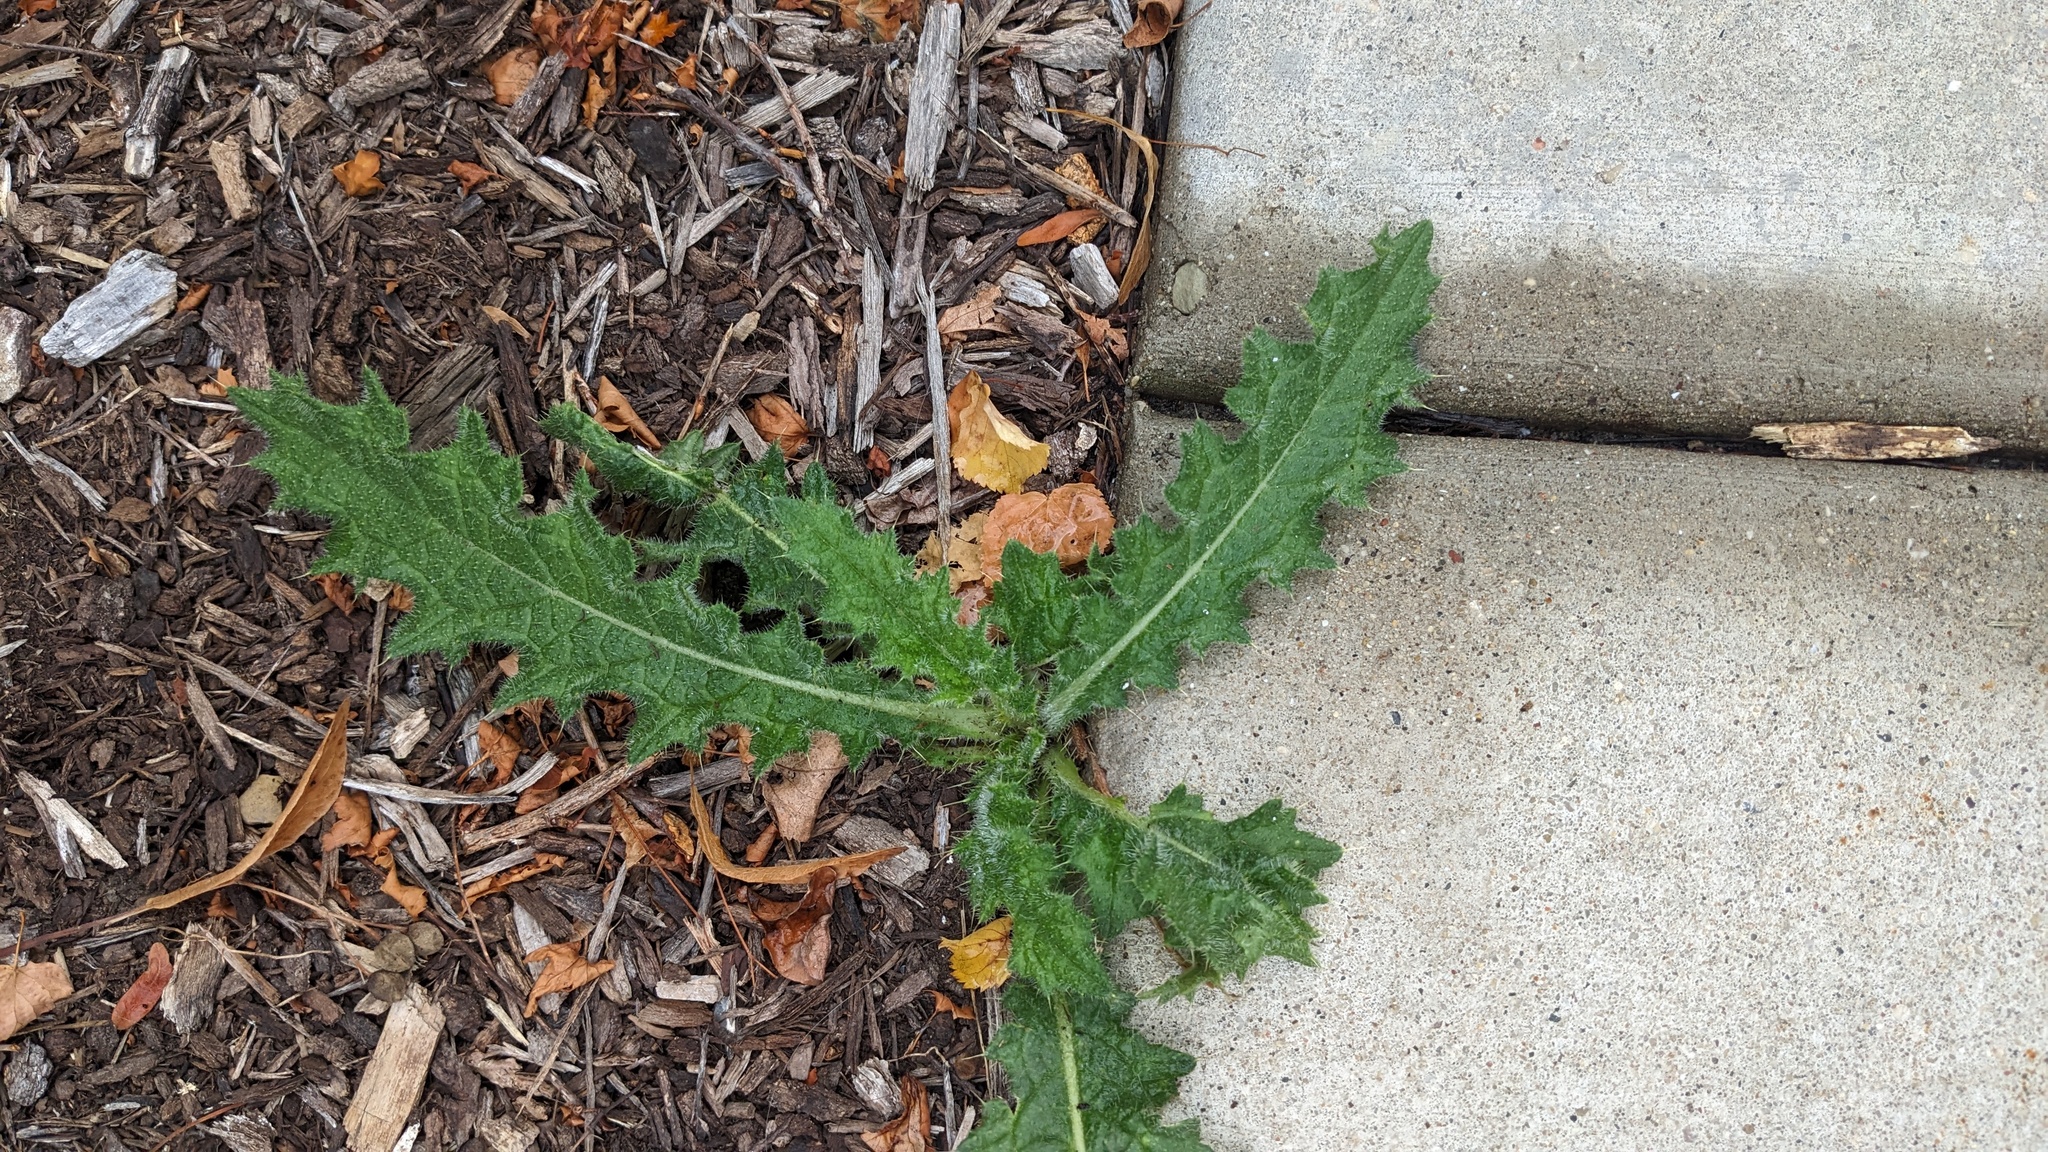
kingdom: Plantae
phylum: Tracheophyta
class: Magnoliopsida
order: Asterales
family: Asteraceae
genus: Cirsium
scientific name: Cirsium vulgare
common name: Bull thistle
